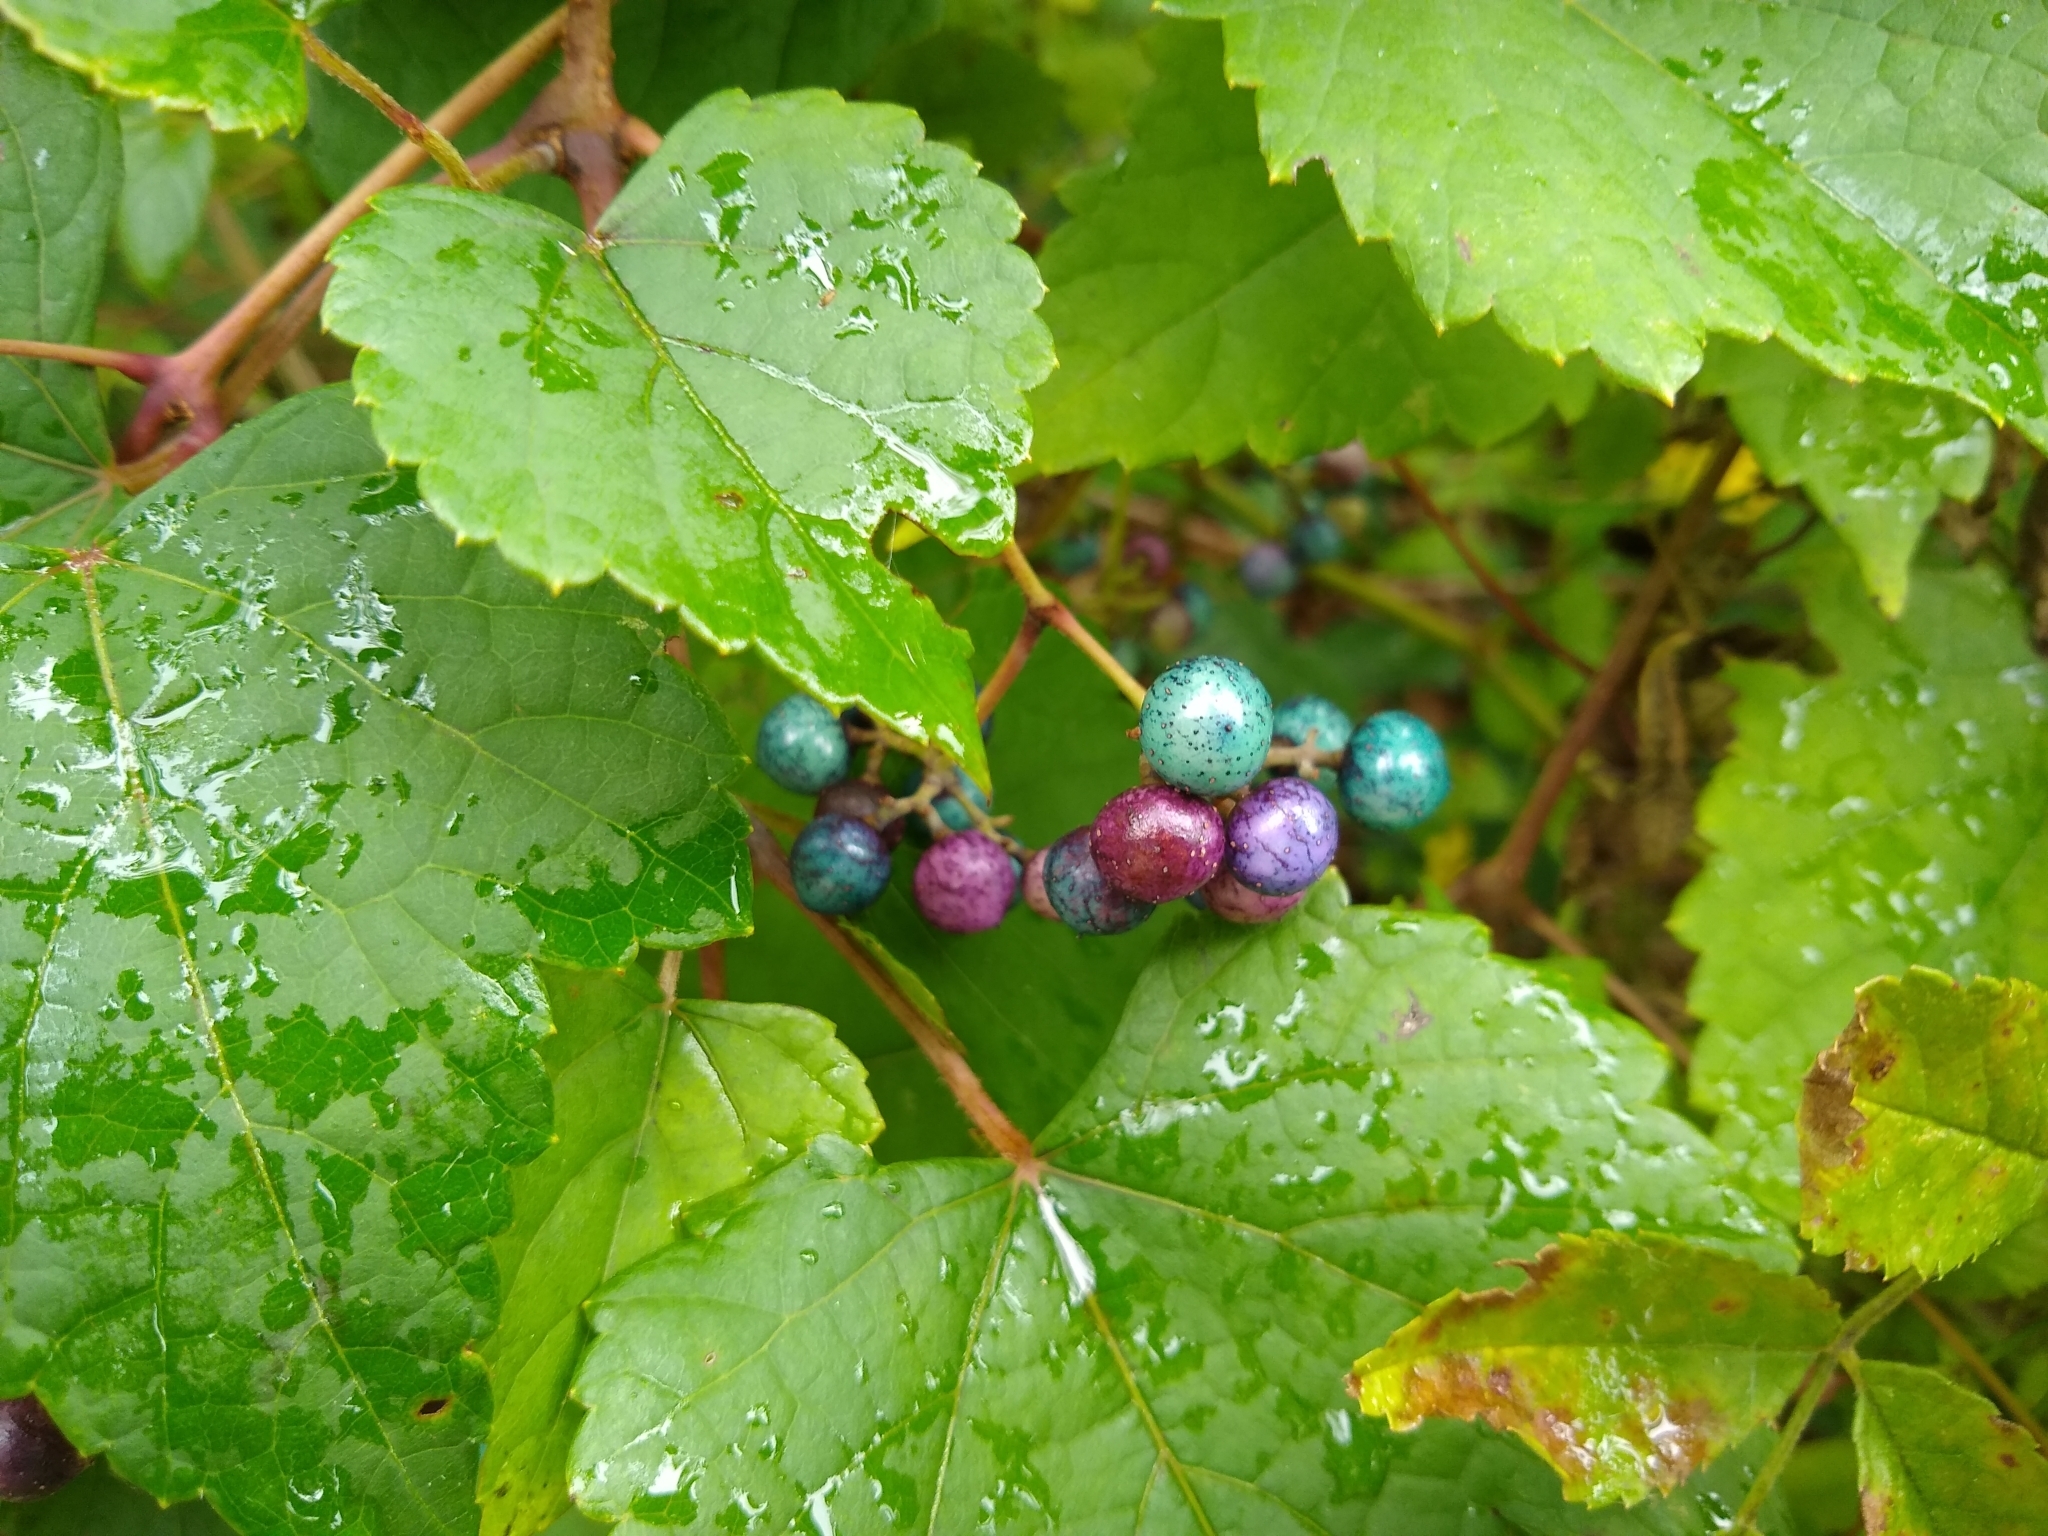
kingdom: Plantae
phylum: Tracheophyta
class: Magnoliopsida
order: Vitales
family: Vitaceae
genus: Ampelopsis
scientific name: Ampelopsis glandulosa
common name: Amur peppervine
